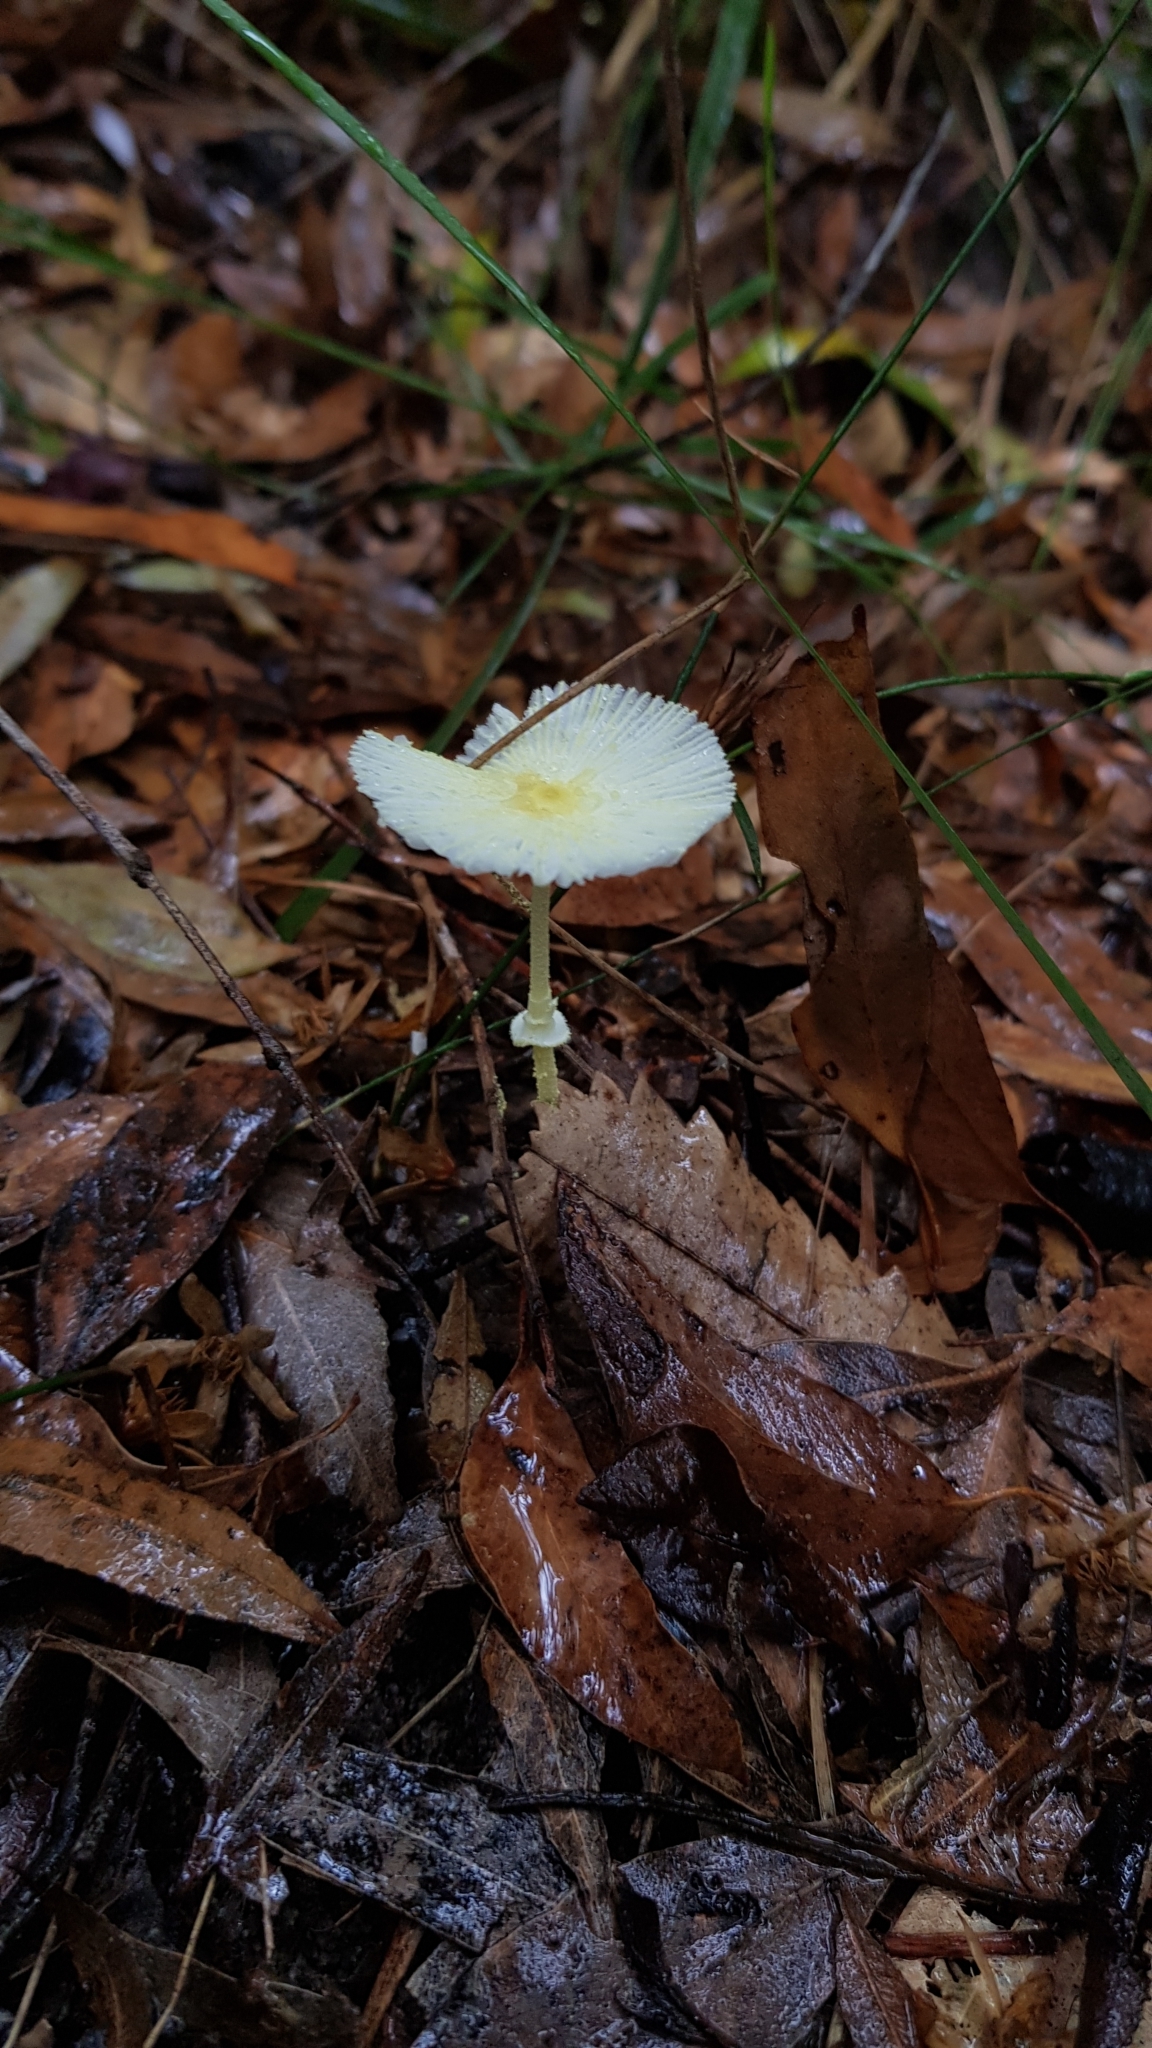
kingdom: Fungi
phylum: Basidiomycota
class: Agaricomycetes
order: Agaricales
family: Agaricaceae
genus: Leucocoprinus
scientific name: Leucocoprinus fragilissimus
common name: Fragile dapperling
